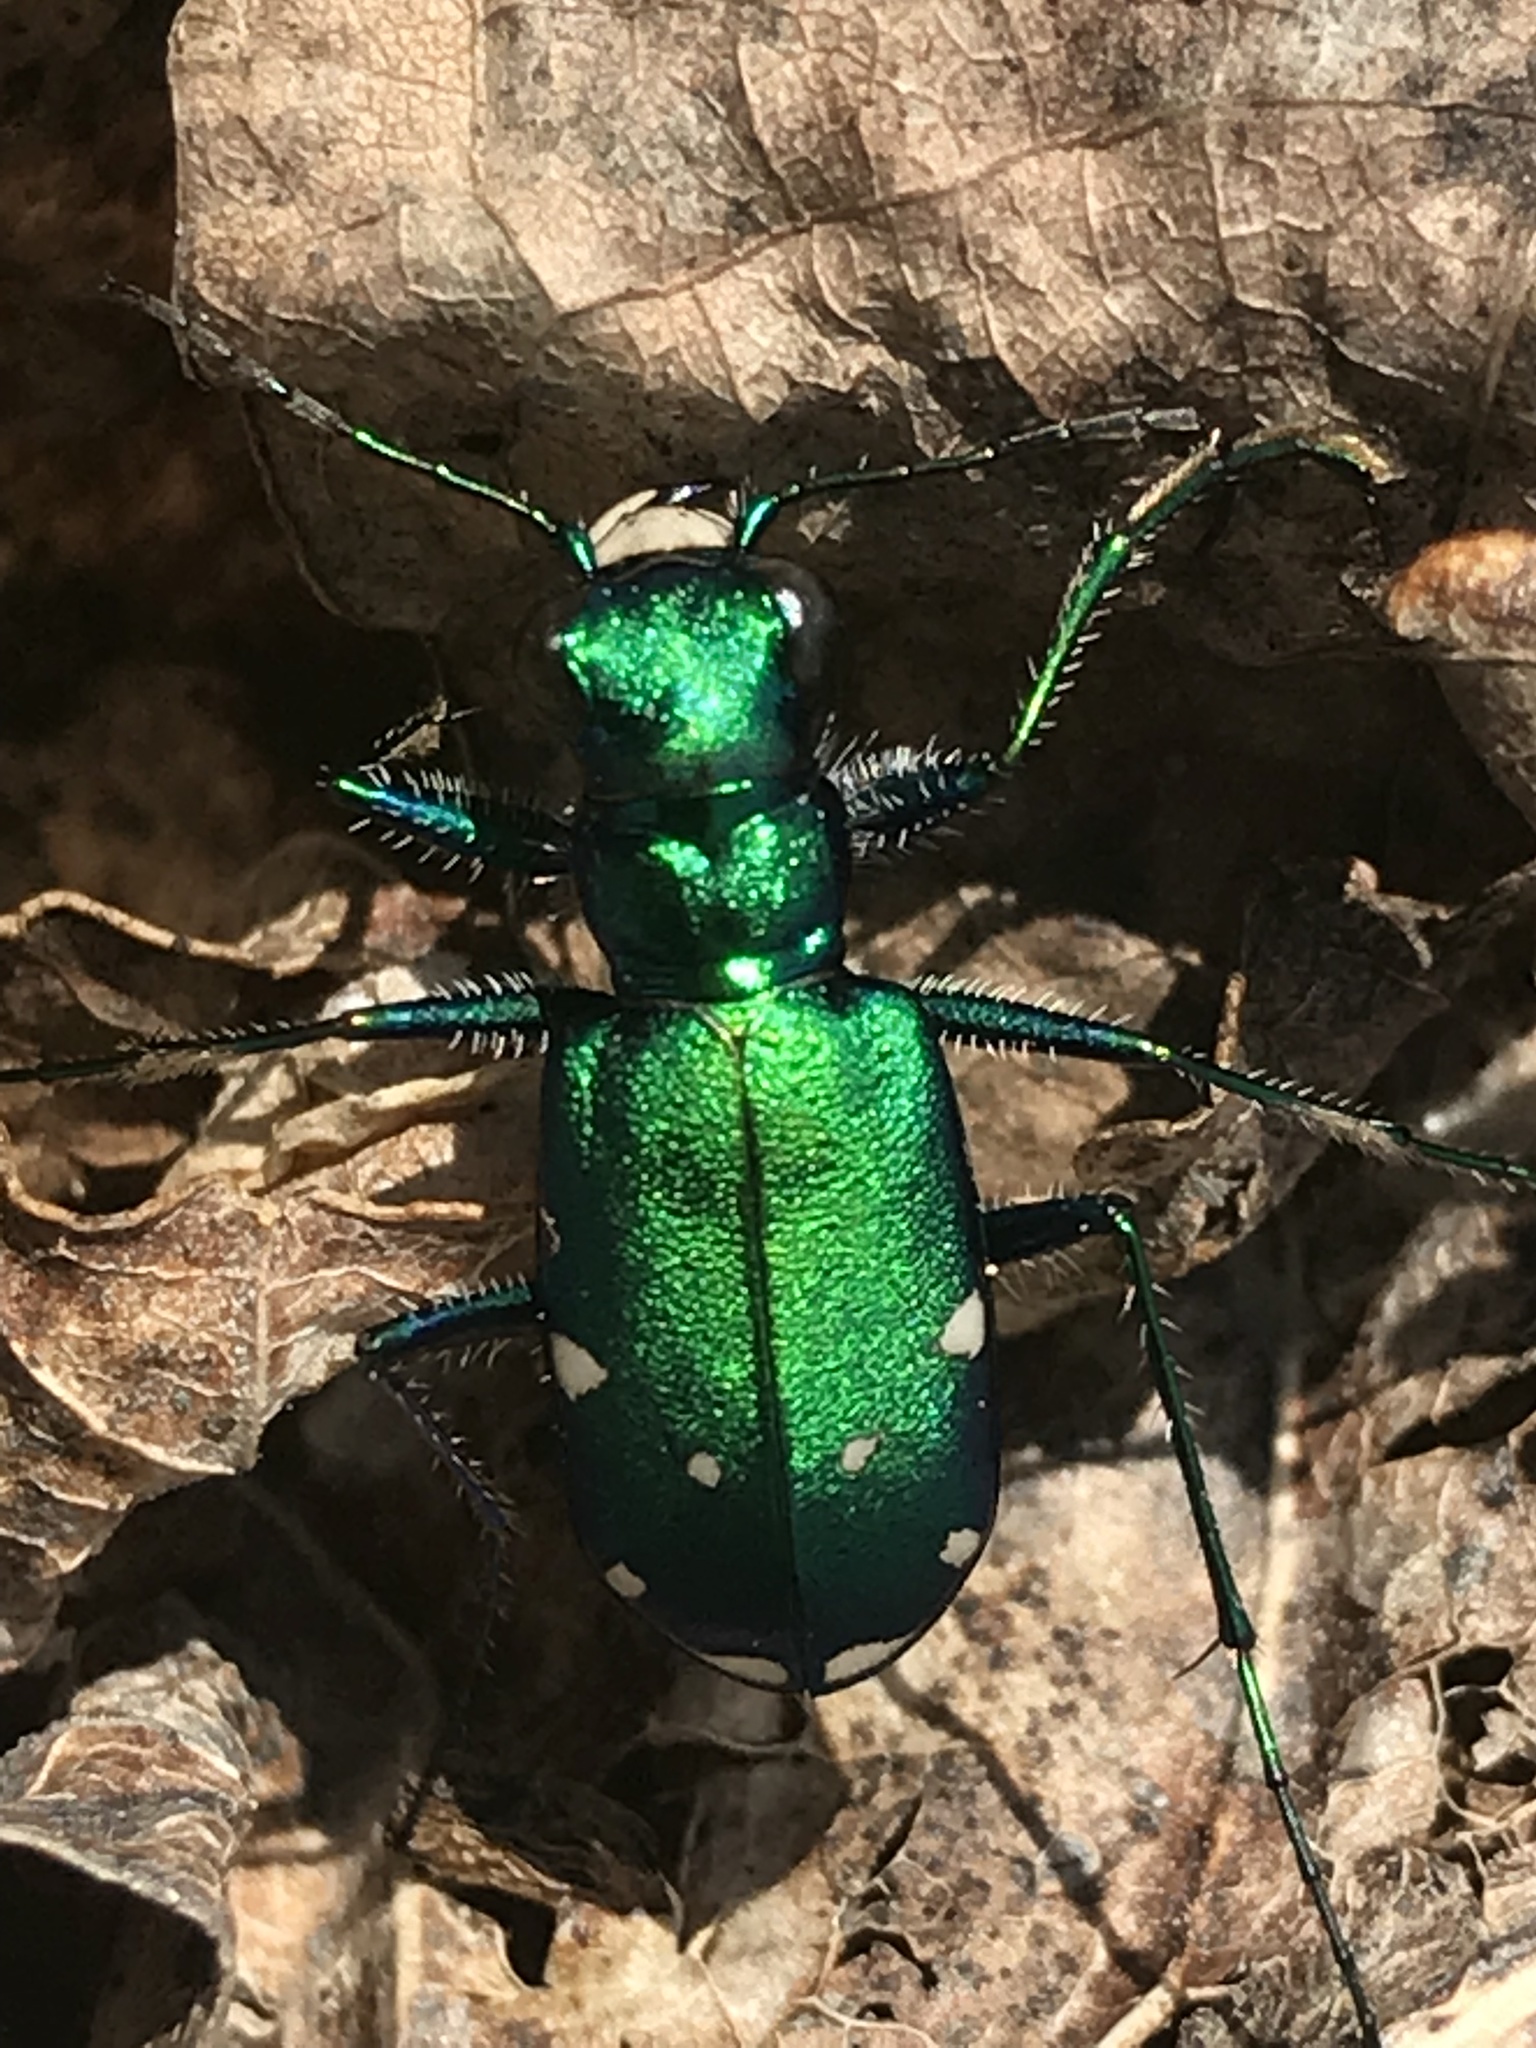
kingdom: Animalia
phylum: Arthropoda
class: Insecta
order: Coleoptera
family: Carabidae
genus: Cicindela
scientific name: Cicindela sexguttata
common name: Six-spotted tiger beetle
